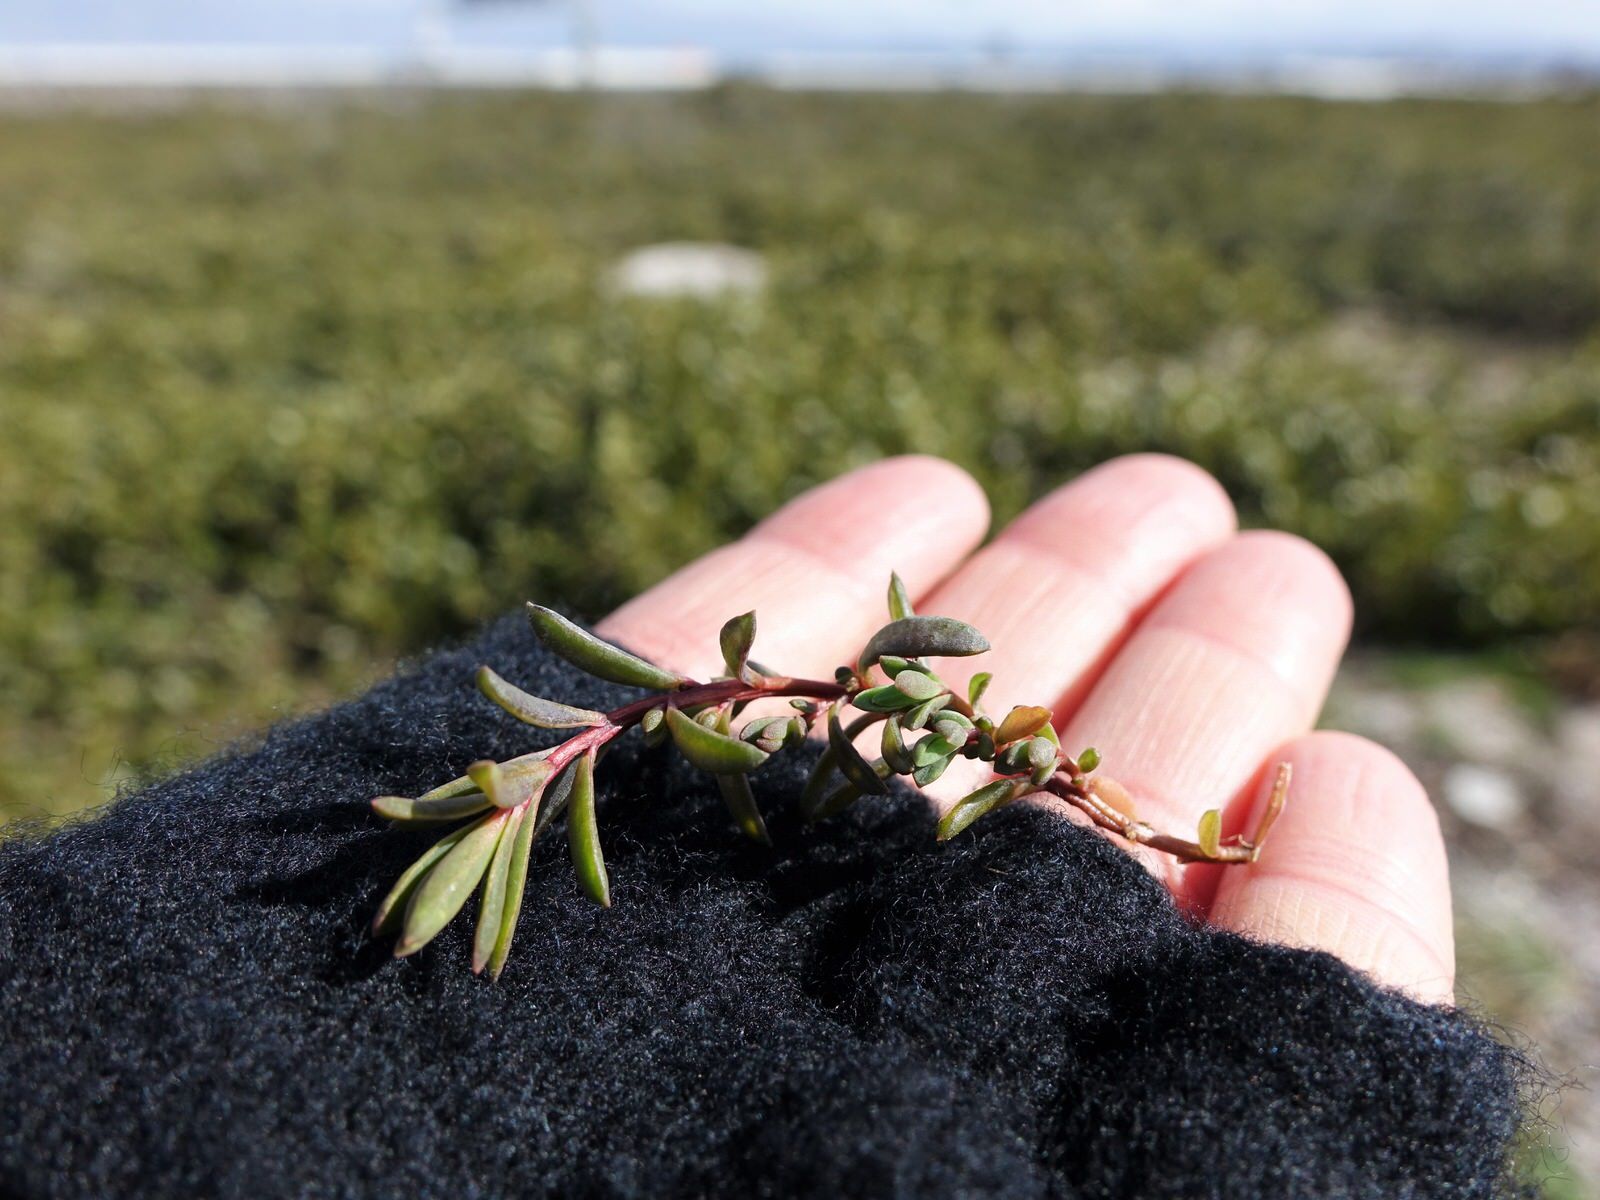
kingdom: Plantae
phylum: Tracheophyta
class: Magnoliopsida
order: Caryophyllales
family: Amaranthaceae
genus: Suaeda
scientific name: Suaeda novae-zelandiae
